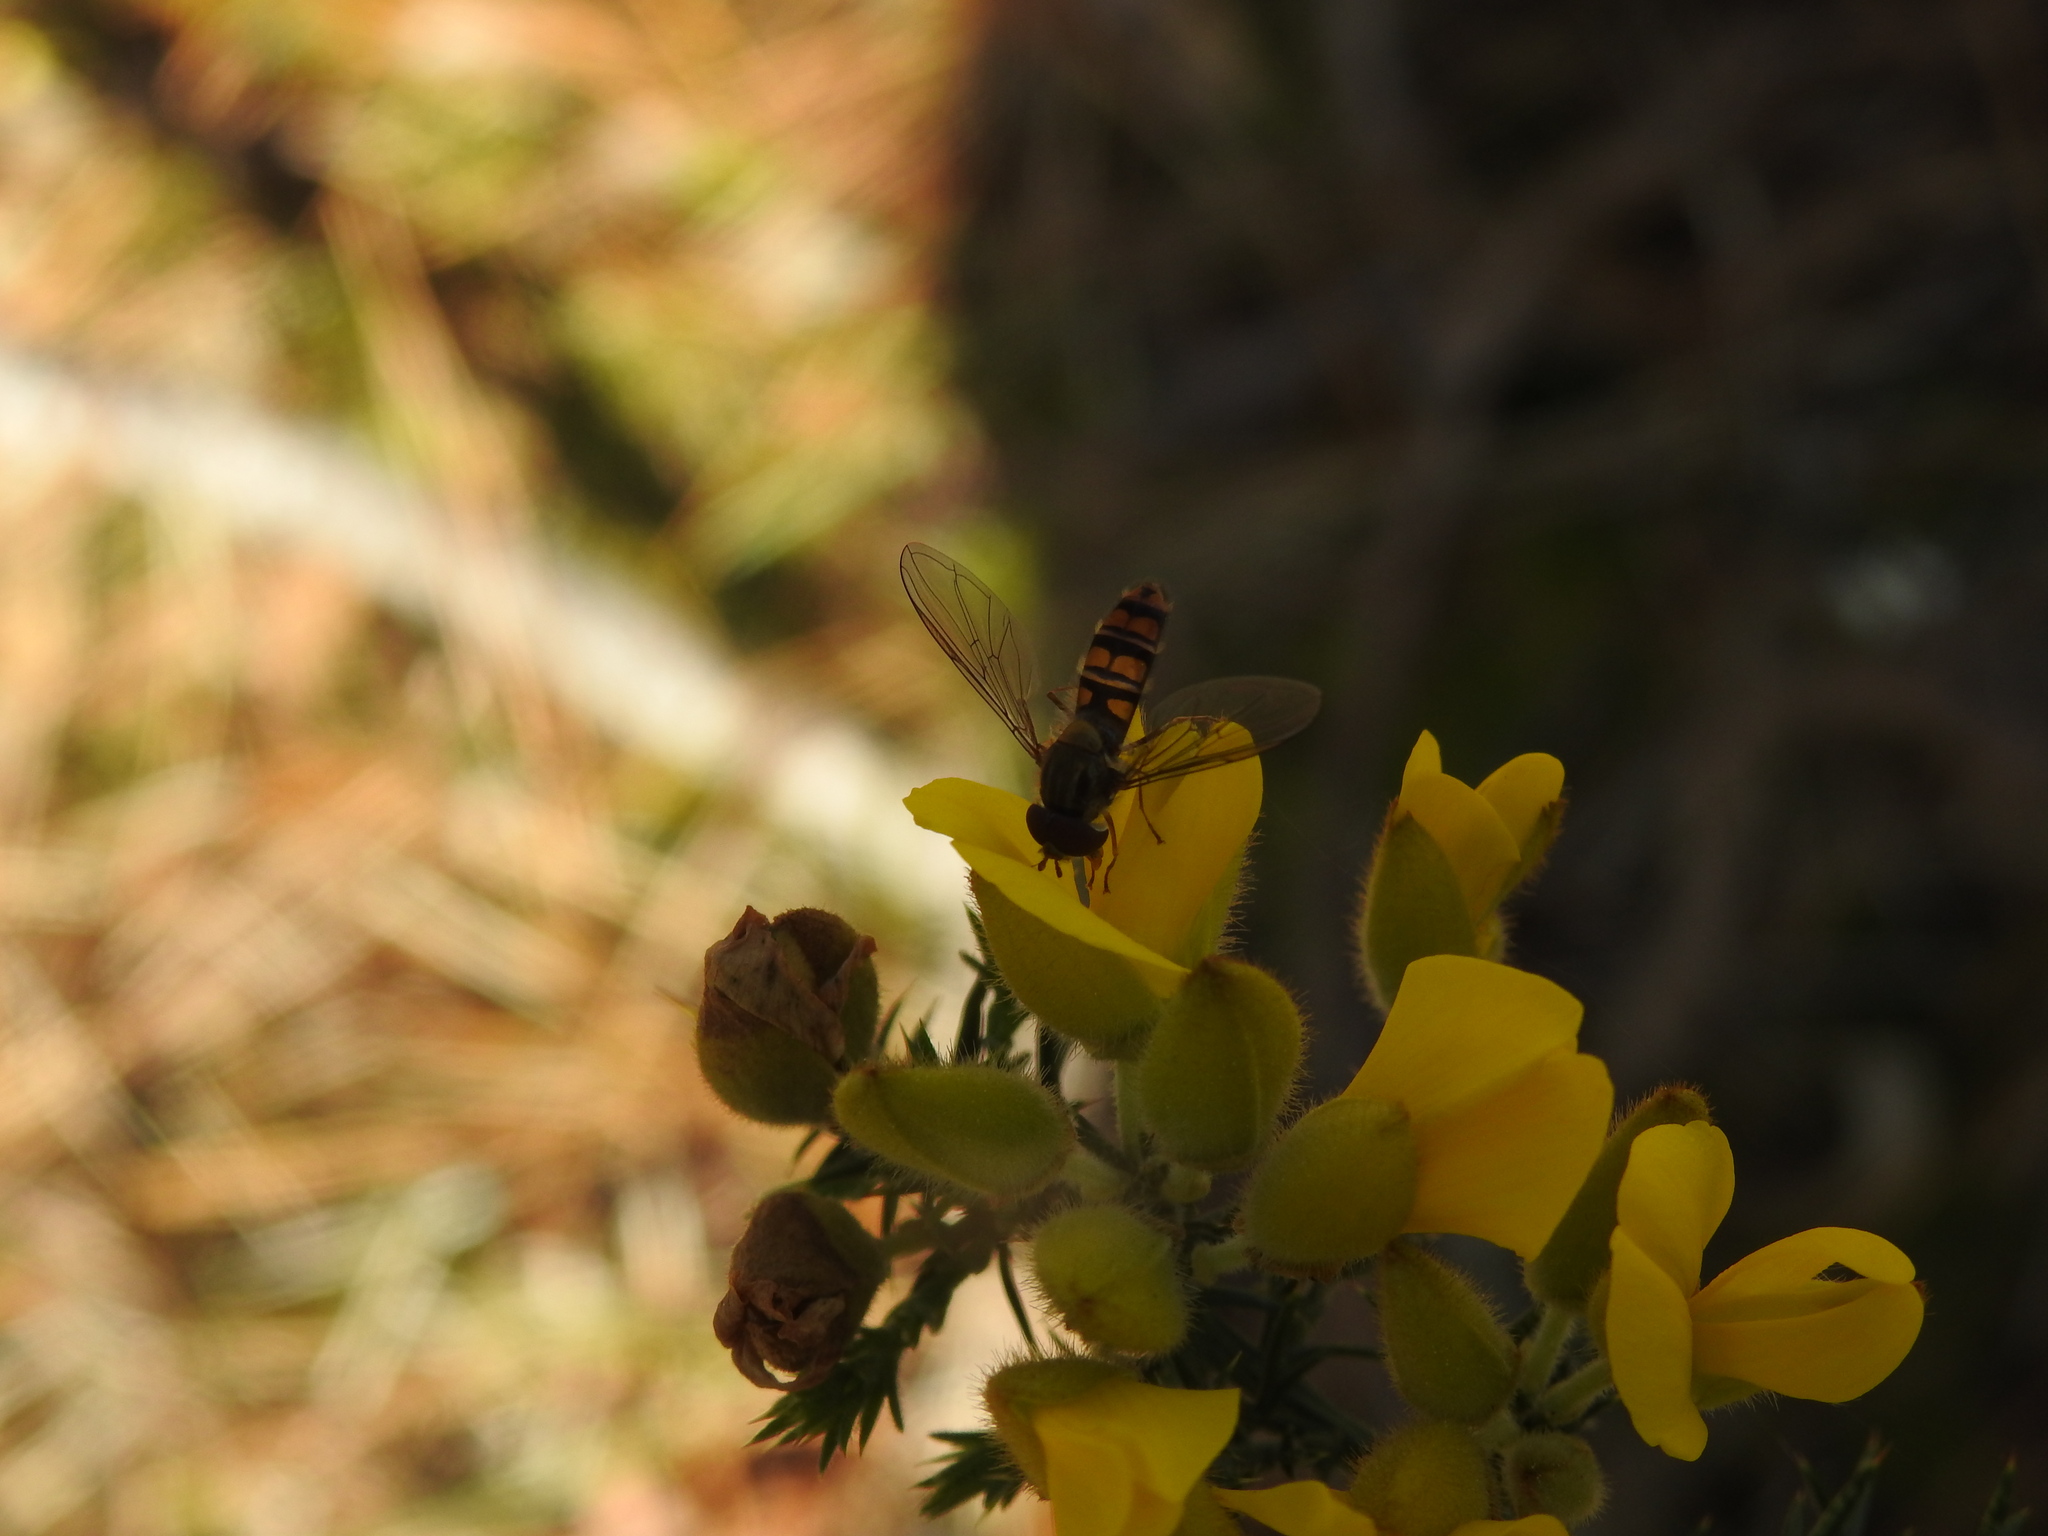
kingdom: Animalia
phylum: Arthropoda
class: Insecta
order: Diptera
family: Syrphidae
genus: Episyrphus
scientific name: Episyrphus balteatus
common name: Marmalade hoverfly
